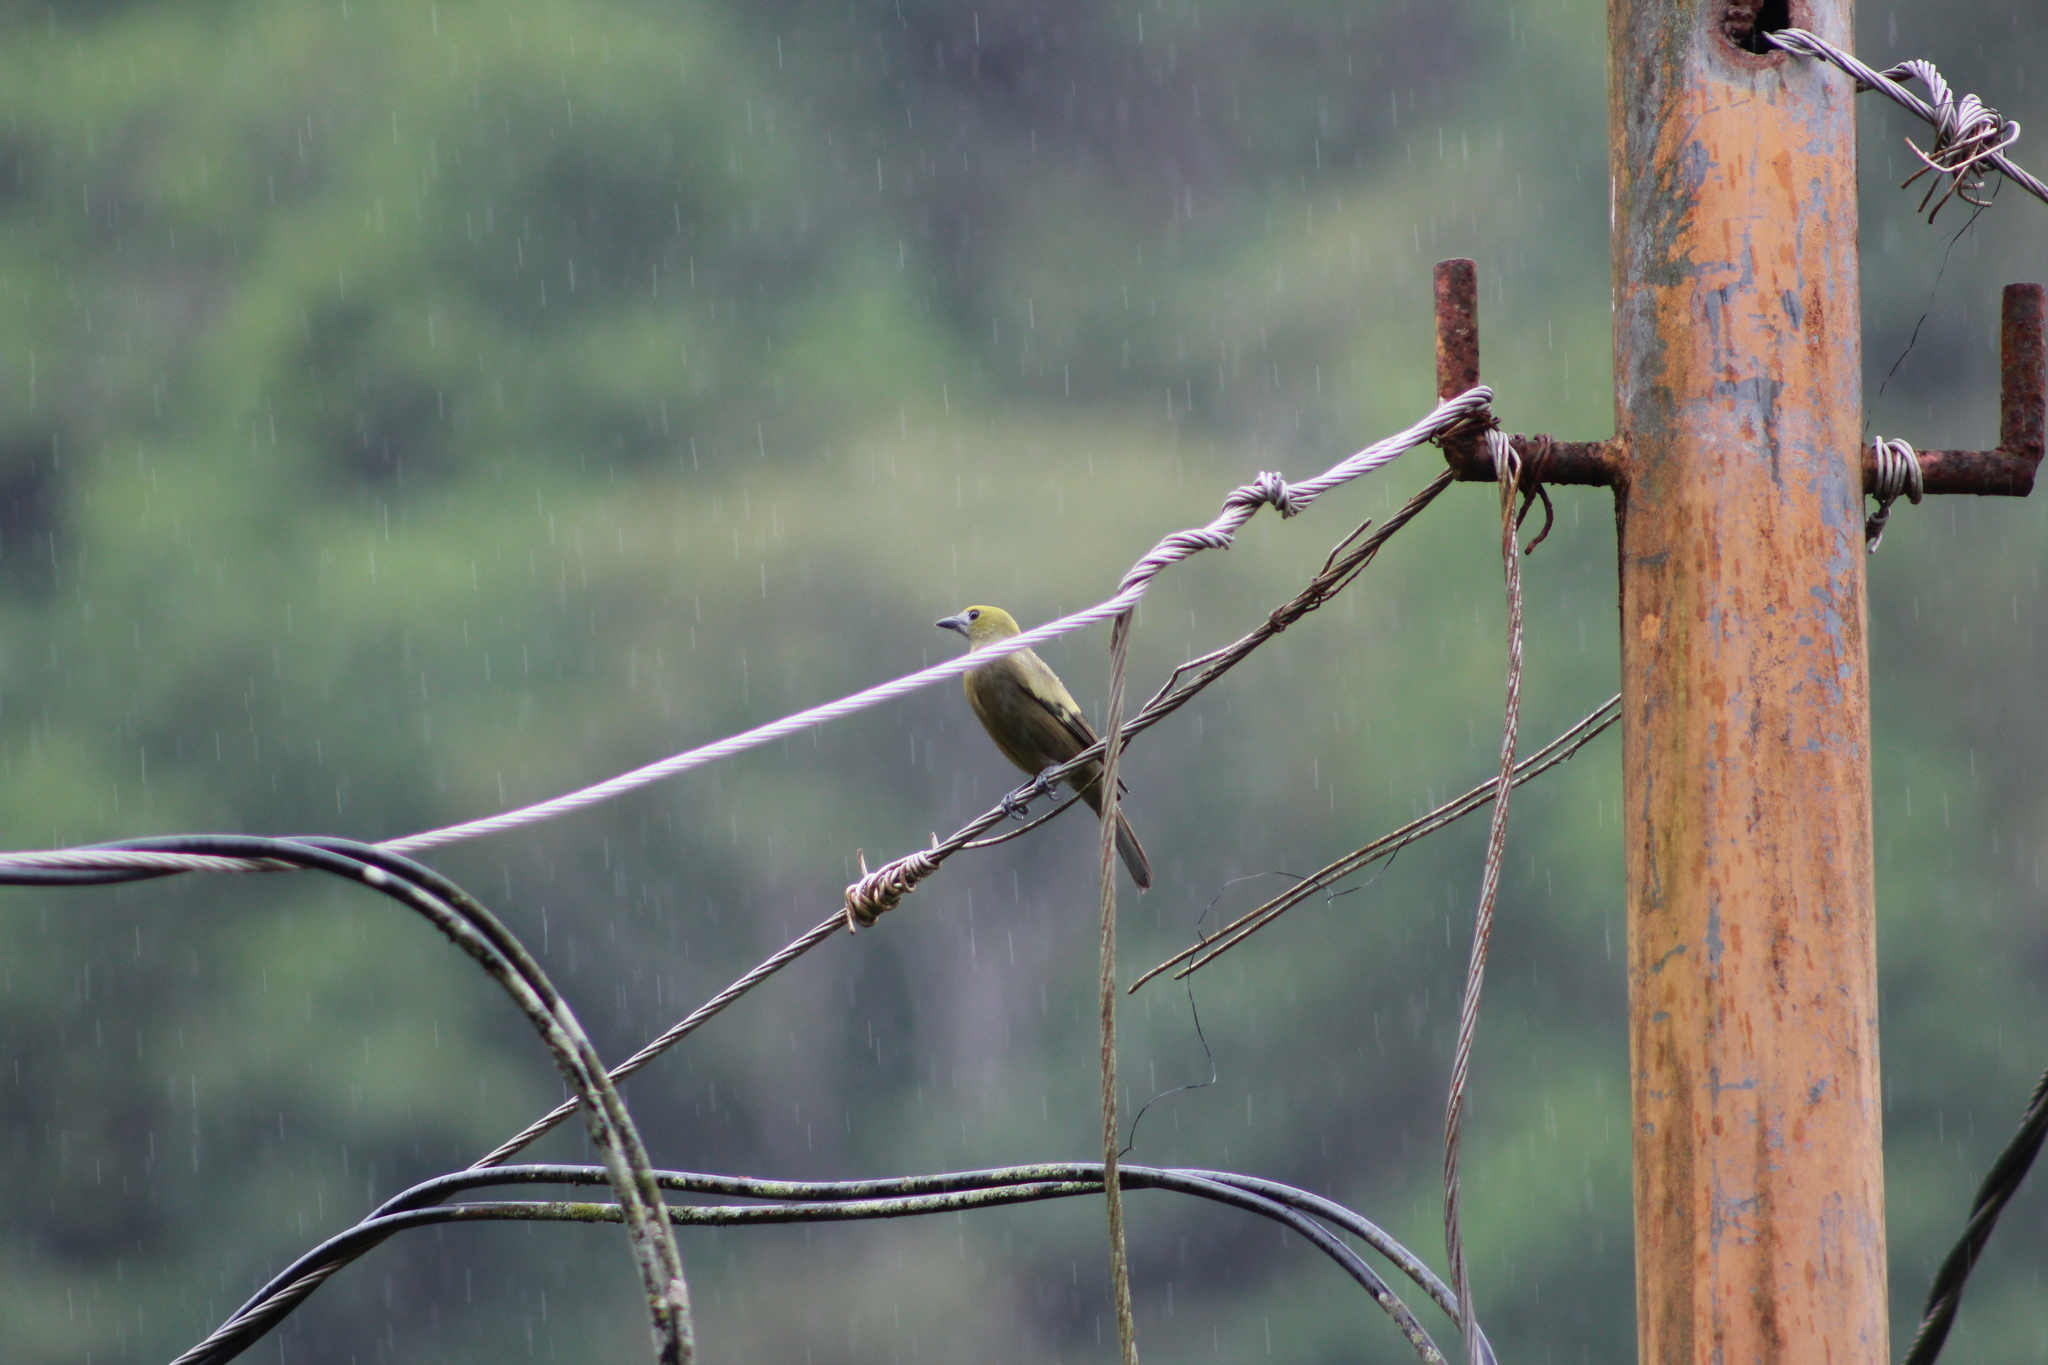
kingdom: Animalia
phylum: Chordata
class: Aves
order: Passeriformes
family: Thraupidae
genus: Thraupis
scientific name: Thraupis palmarum
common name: Palm tanager
